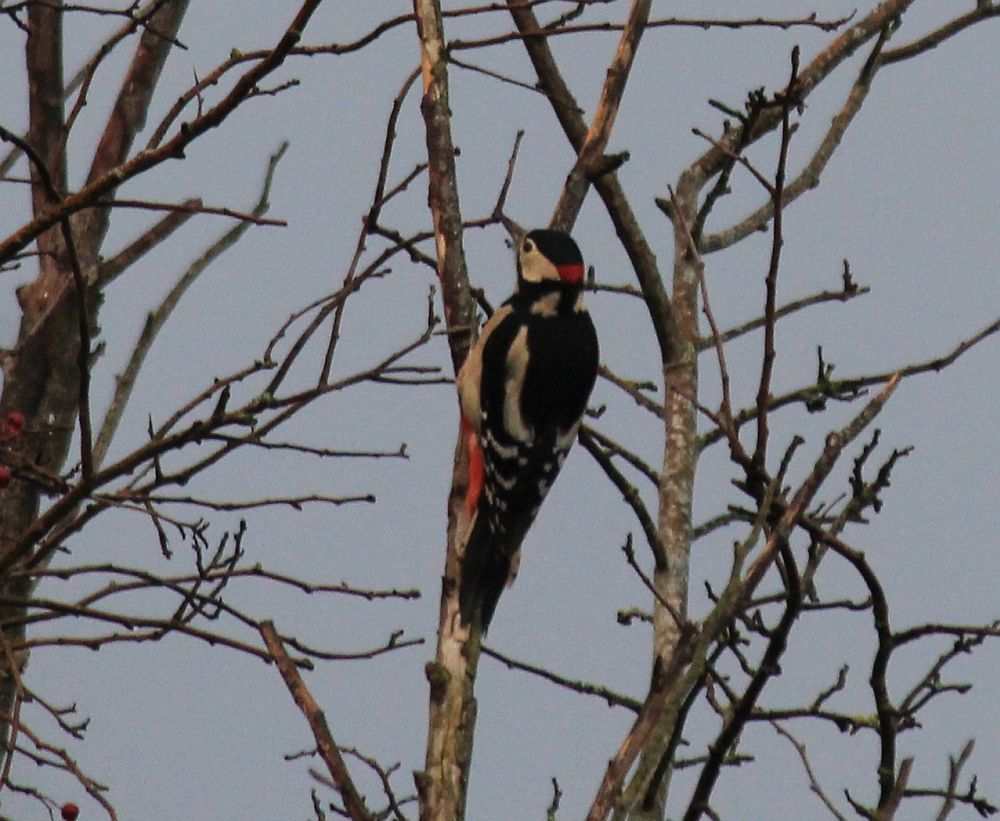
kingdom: Animalia
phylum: Chordata
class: Aves
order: Piciformes
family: Picidae
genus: Dendrocopos
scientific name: Dendrocopos major
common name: Great spotted woodpecker
